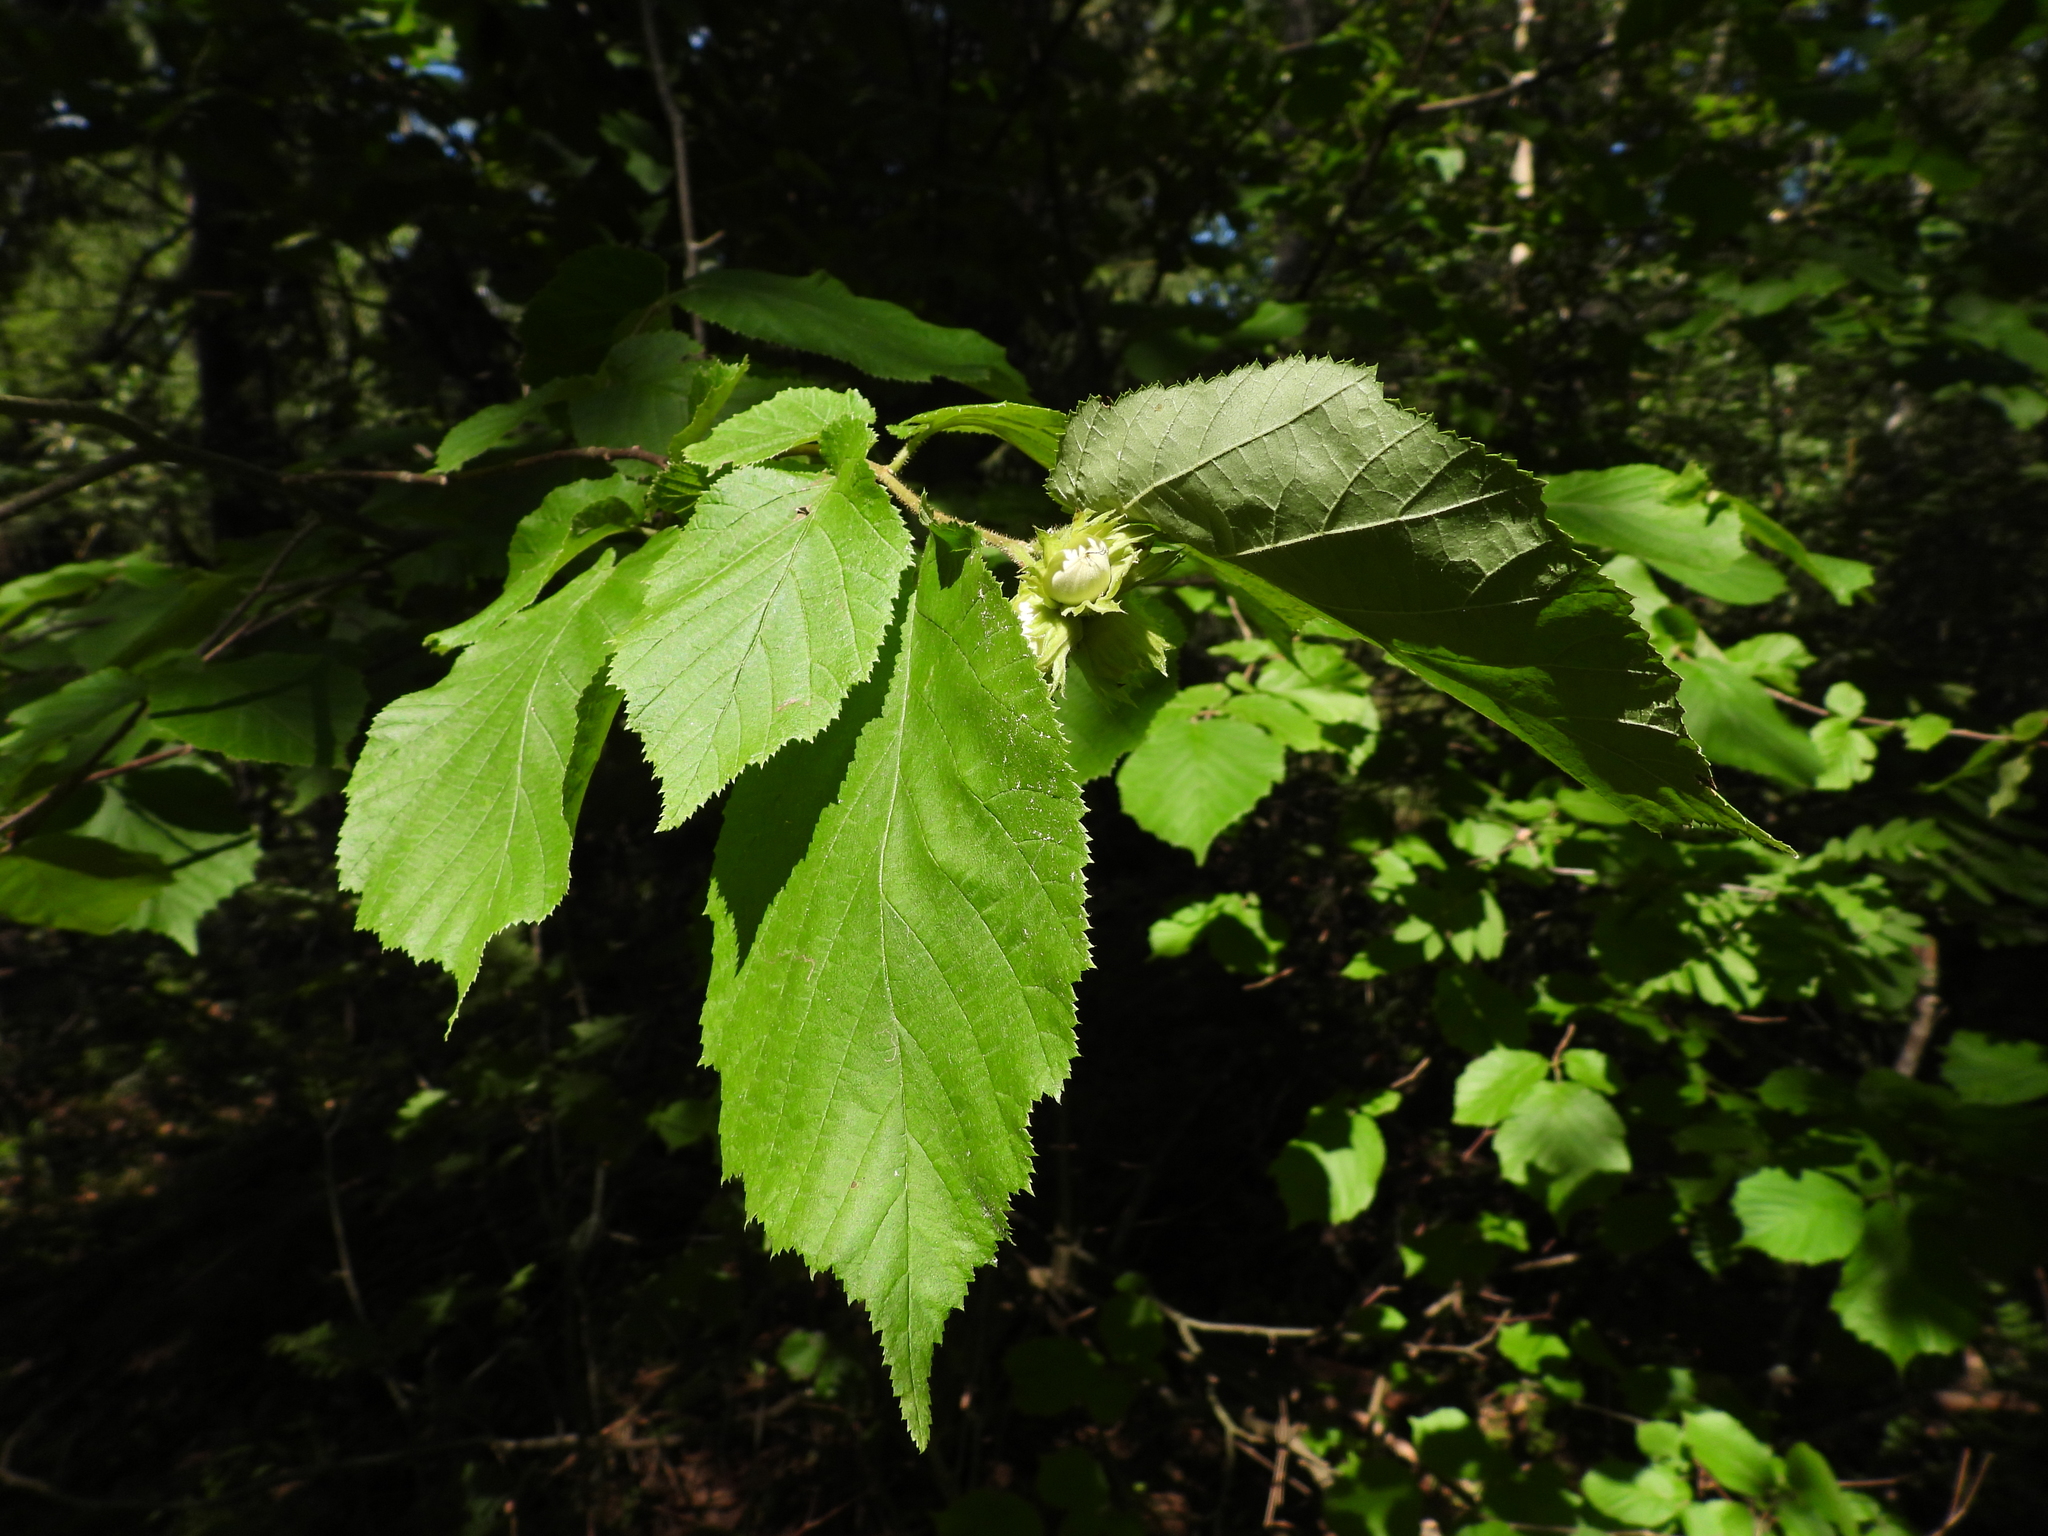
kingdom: Plantae
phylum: Tracheophyta
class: Magnoliopsida
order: Fagales
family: Betulaceae
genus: Corylus
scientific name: Corylus avellana
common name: European hazel
